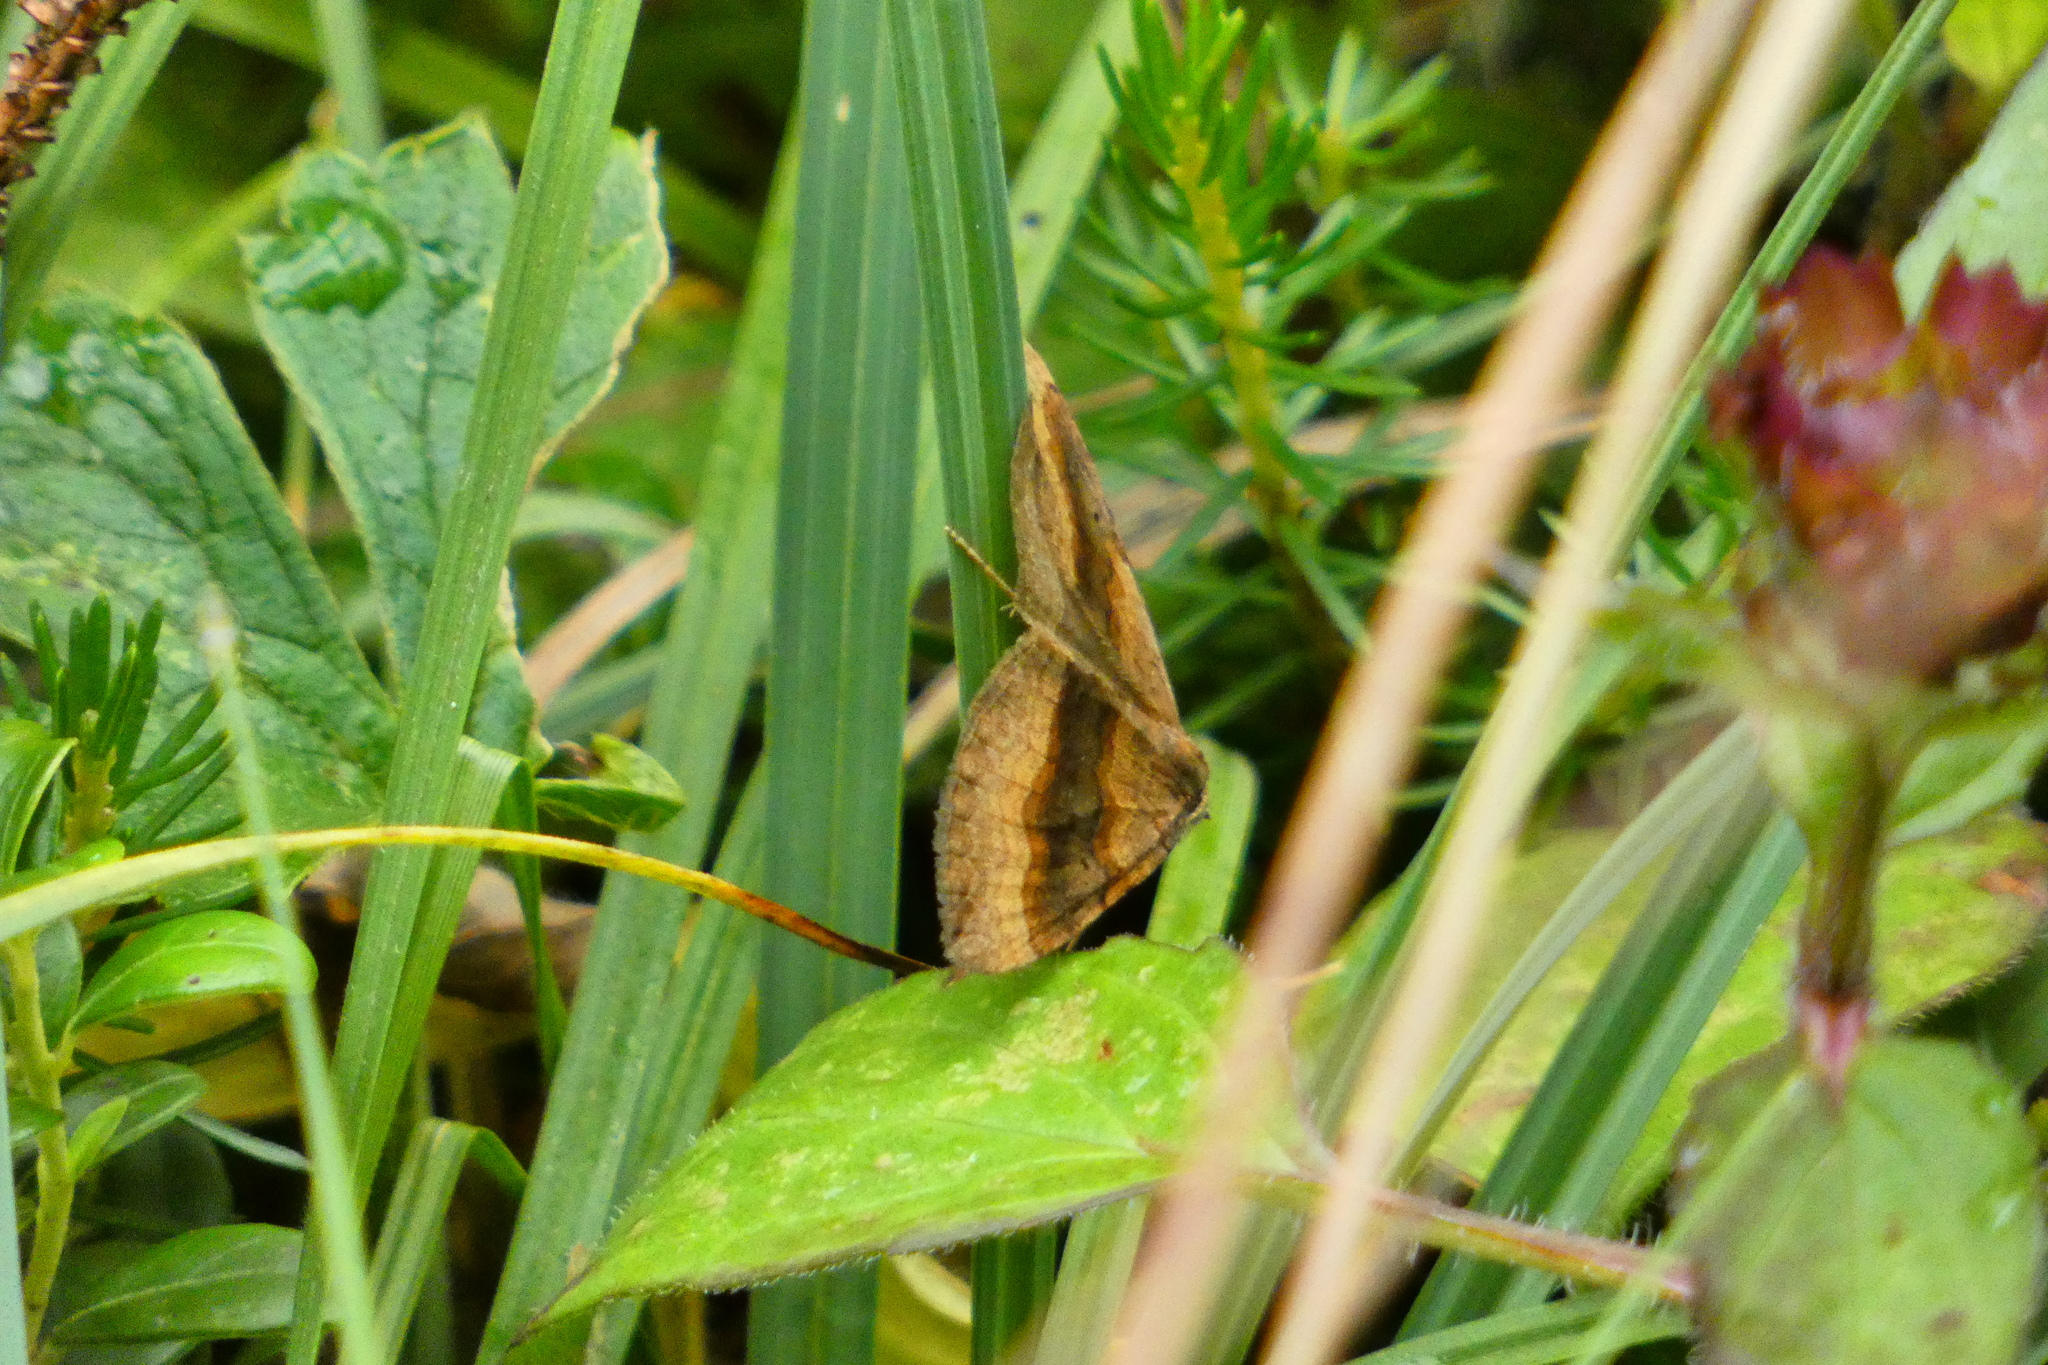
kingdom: Animalia
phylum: Arthropoda
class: Insecta
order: Lepidoptera
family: Geometridae
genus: Scotopteryx
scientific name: Scotopteryx chenopodiata
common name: Shaded broad-bar
